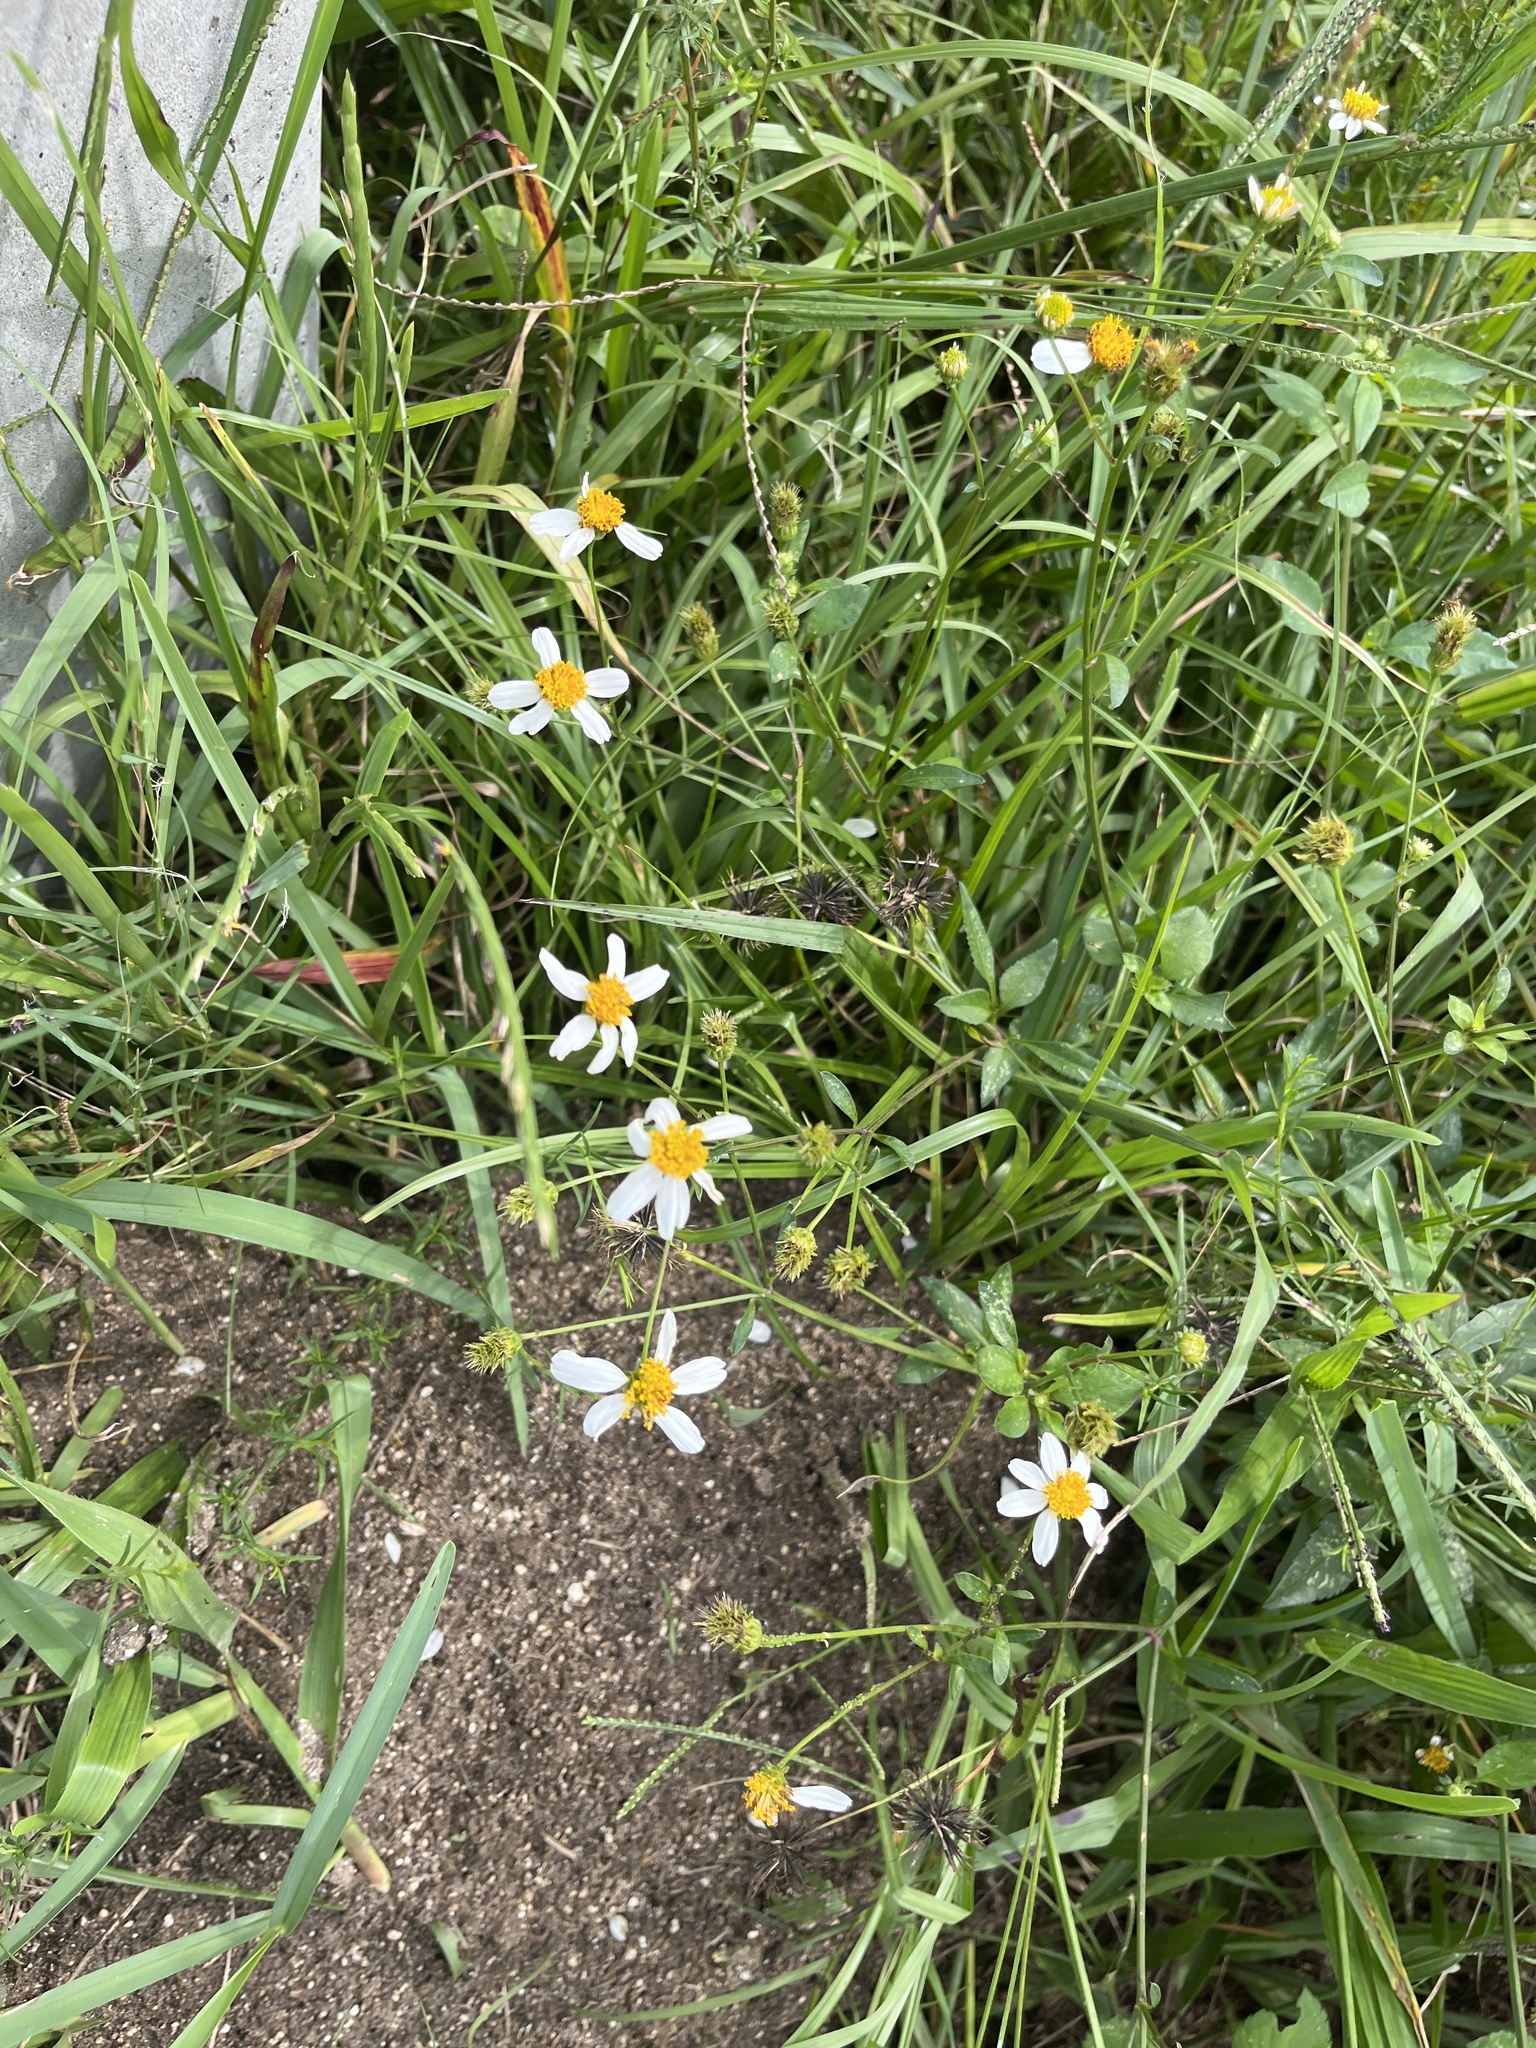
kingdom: Plantae
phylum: Tracheophyta
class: Magnoliopsida
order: Asterales
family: Asteraceae
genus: Bidens
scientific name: Bidens alba
